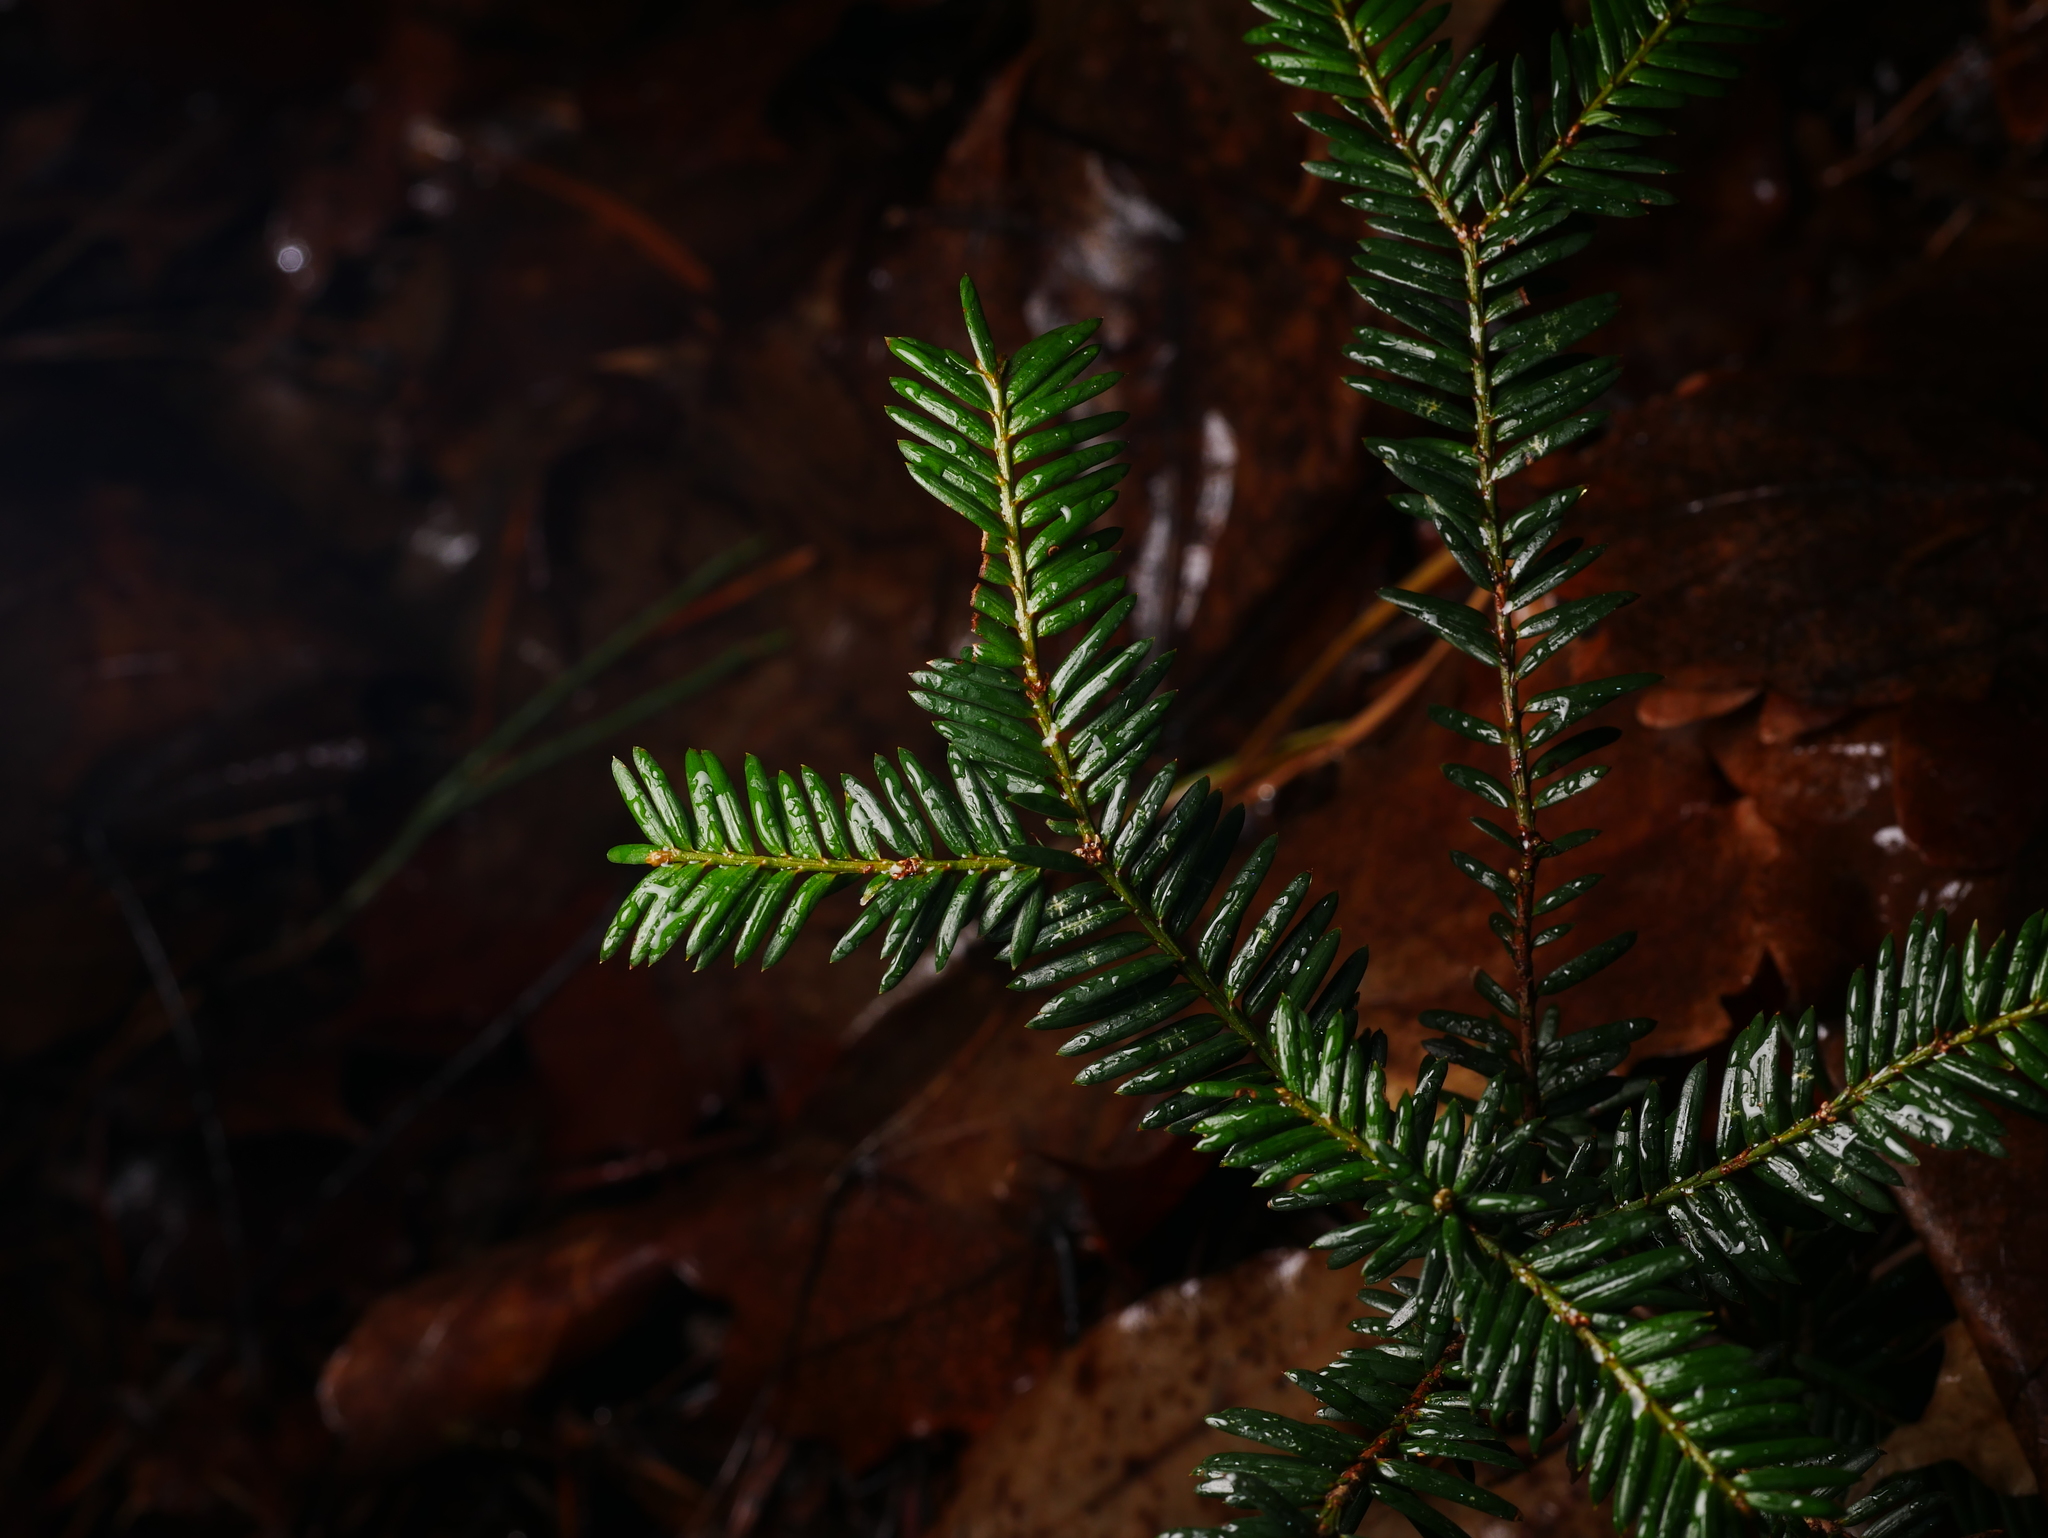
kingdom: Plantae
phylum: Tracheophyta
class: Pinopsida
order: Pinales
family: Taxaceae
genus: Taxus
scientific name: Taxus baccata
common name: Yew
